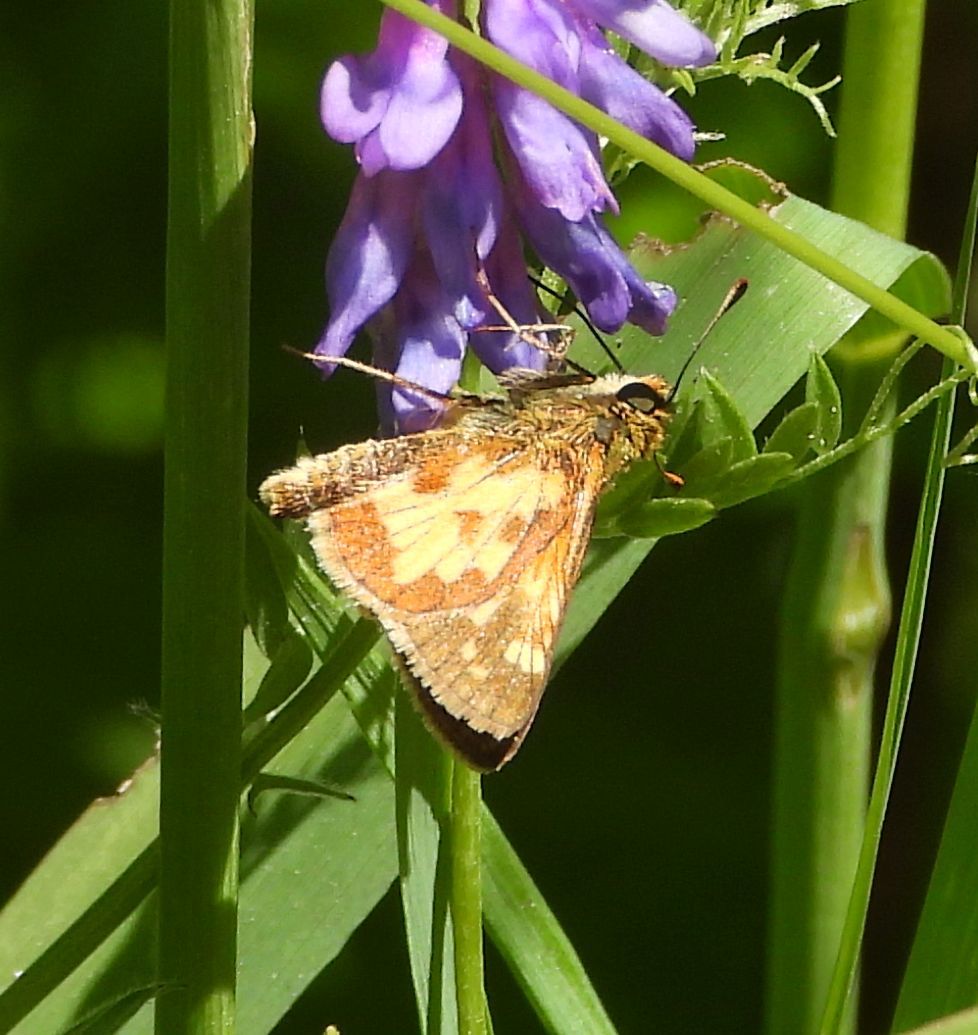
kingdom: Animalia
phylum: Arthropoda
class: Insecta
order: Lepidoptera
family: Hesperiidae
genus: Polites
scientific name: Polites coras
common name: Peck's skipper
